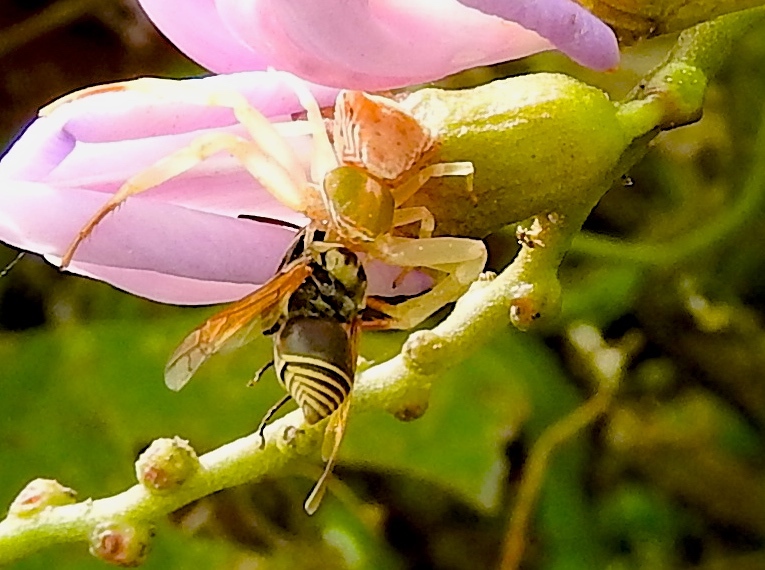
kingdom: Animalia
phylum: Arthropoda
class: Arachnida
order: Araneae
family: Thomisidae
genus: Misumenoides
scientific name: Misumenoides
